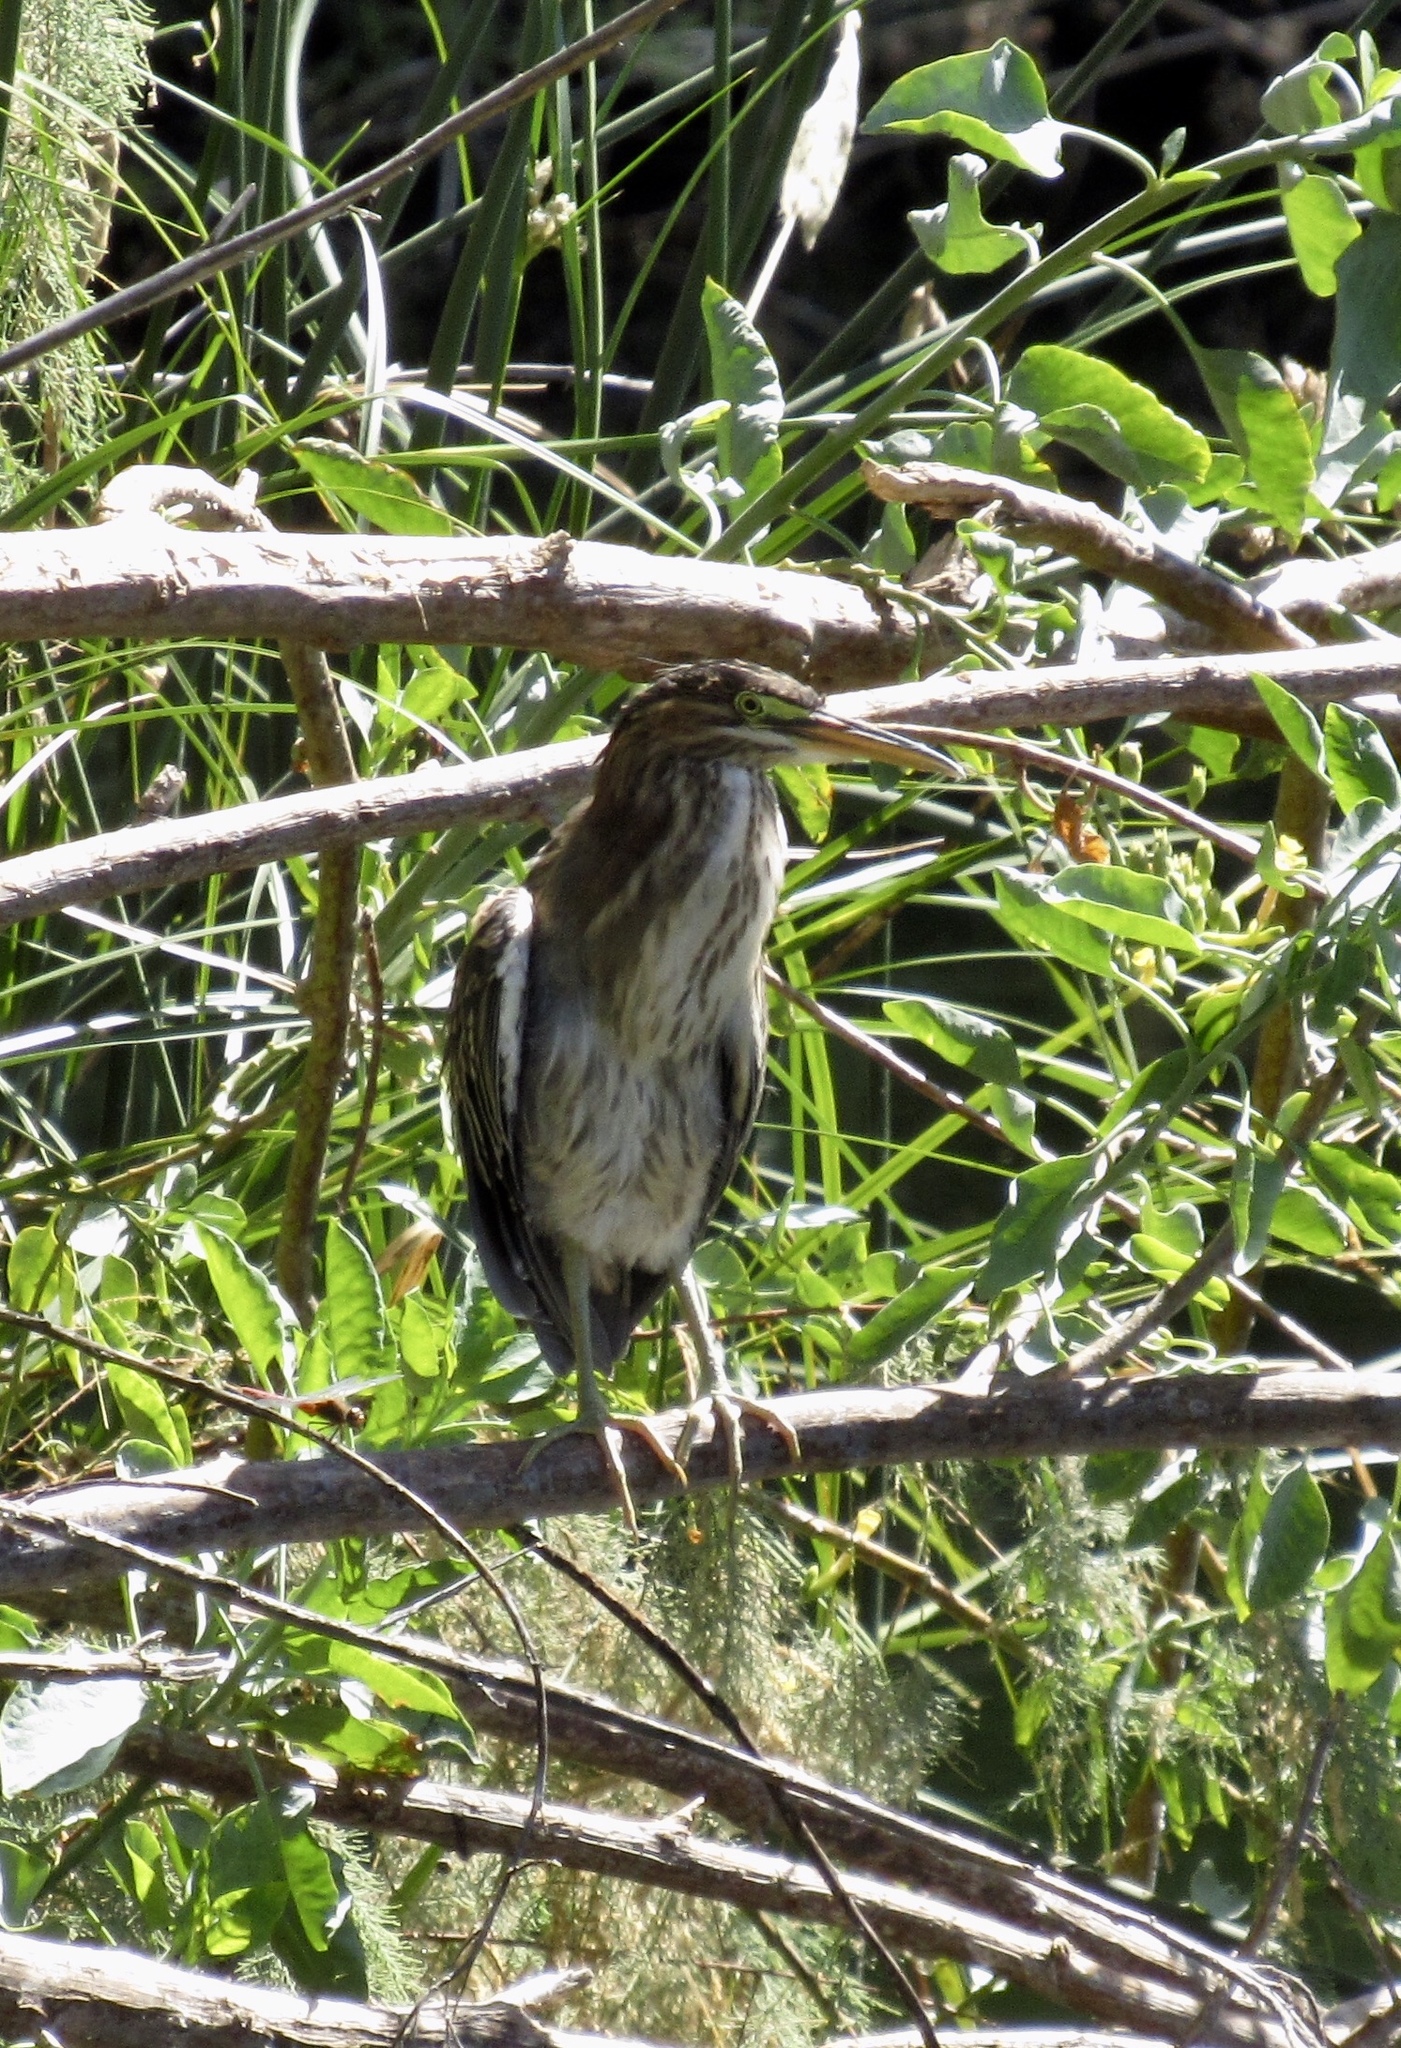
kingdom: Animalia
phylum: Chordata
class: Aves
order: Pelecaniformes
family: Ardeidae
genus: Butorides
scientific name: Butorides virescens
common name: Green heron
